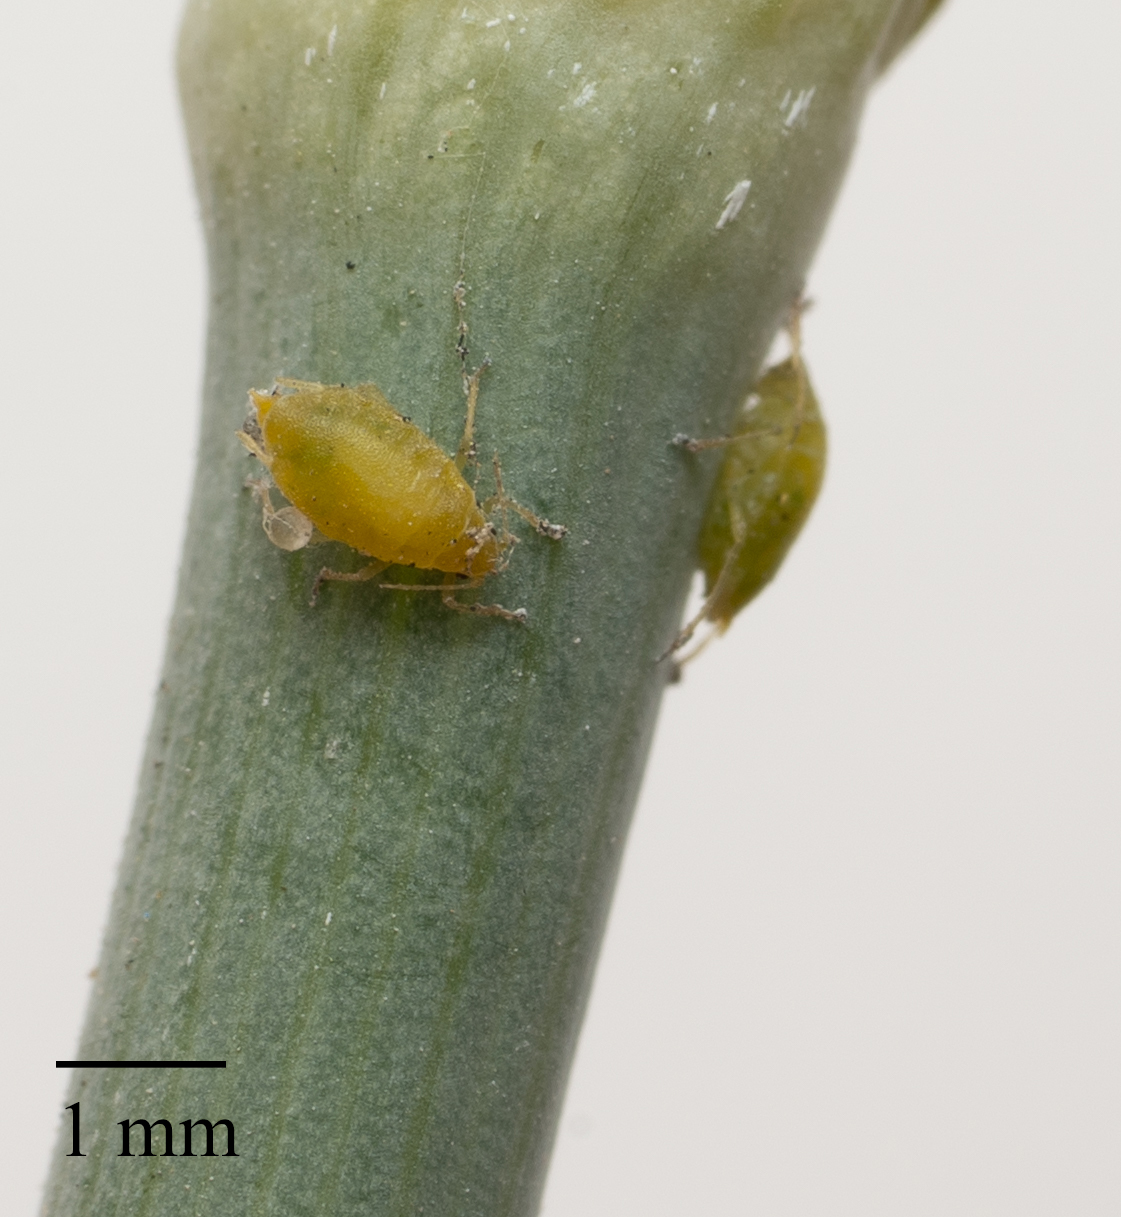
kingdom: Animalia
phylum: Arthropoda
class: Insecta
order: Hemiptera
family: Aphididae
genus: Cavariella
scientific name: Cavariella aegopodii
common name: Carrot-willow aphid
